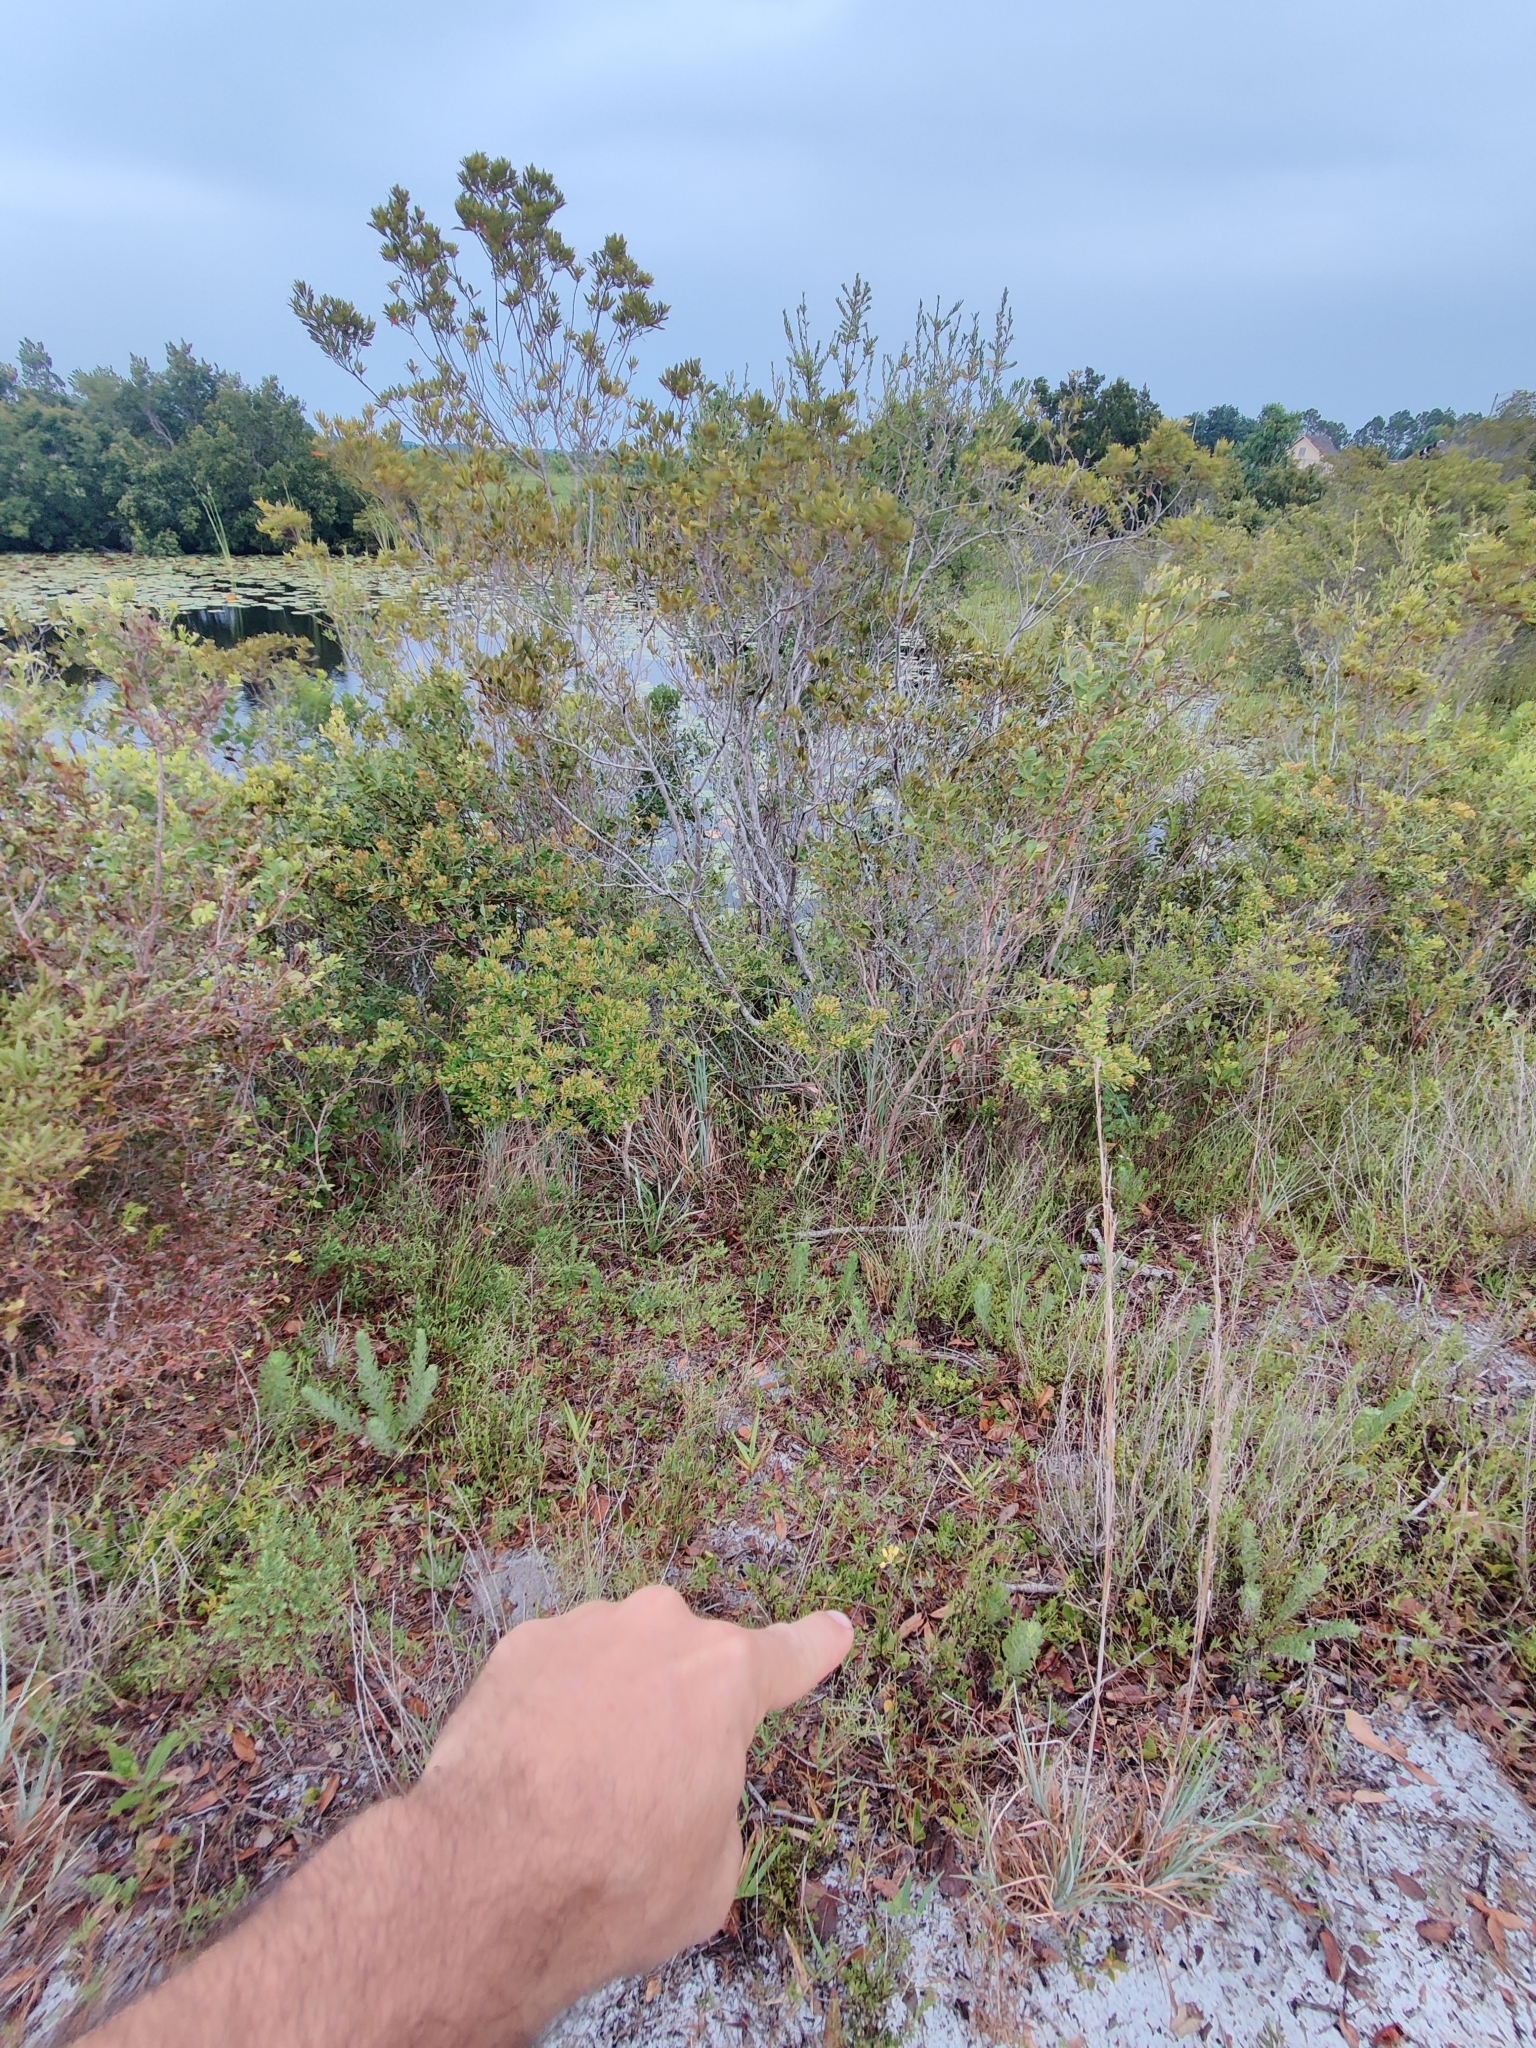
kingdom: Plantae
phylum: Tracheophyta
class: Magnoliopsida
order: Gentianales
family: Apocynaceae
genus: Asclepias
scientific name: Asclepias pedicellata
